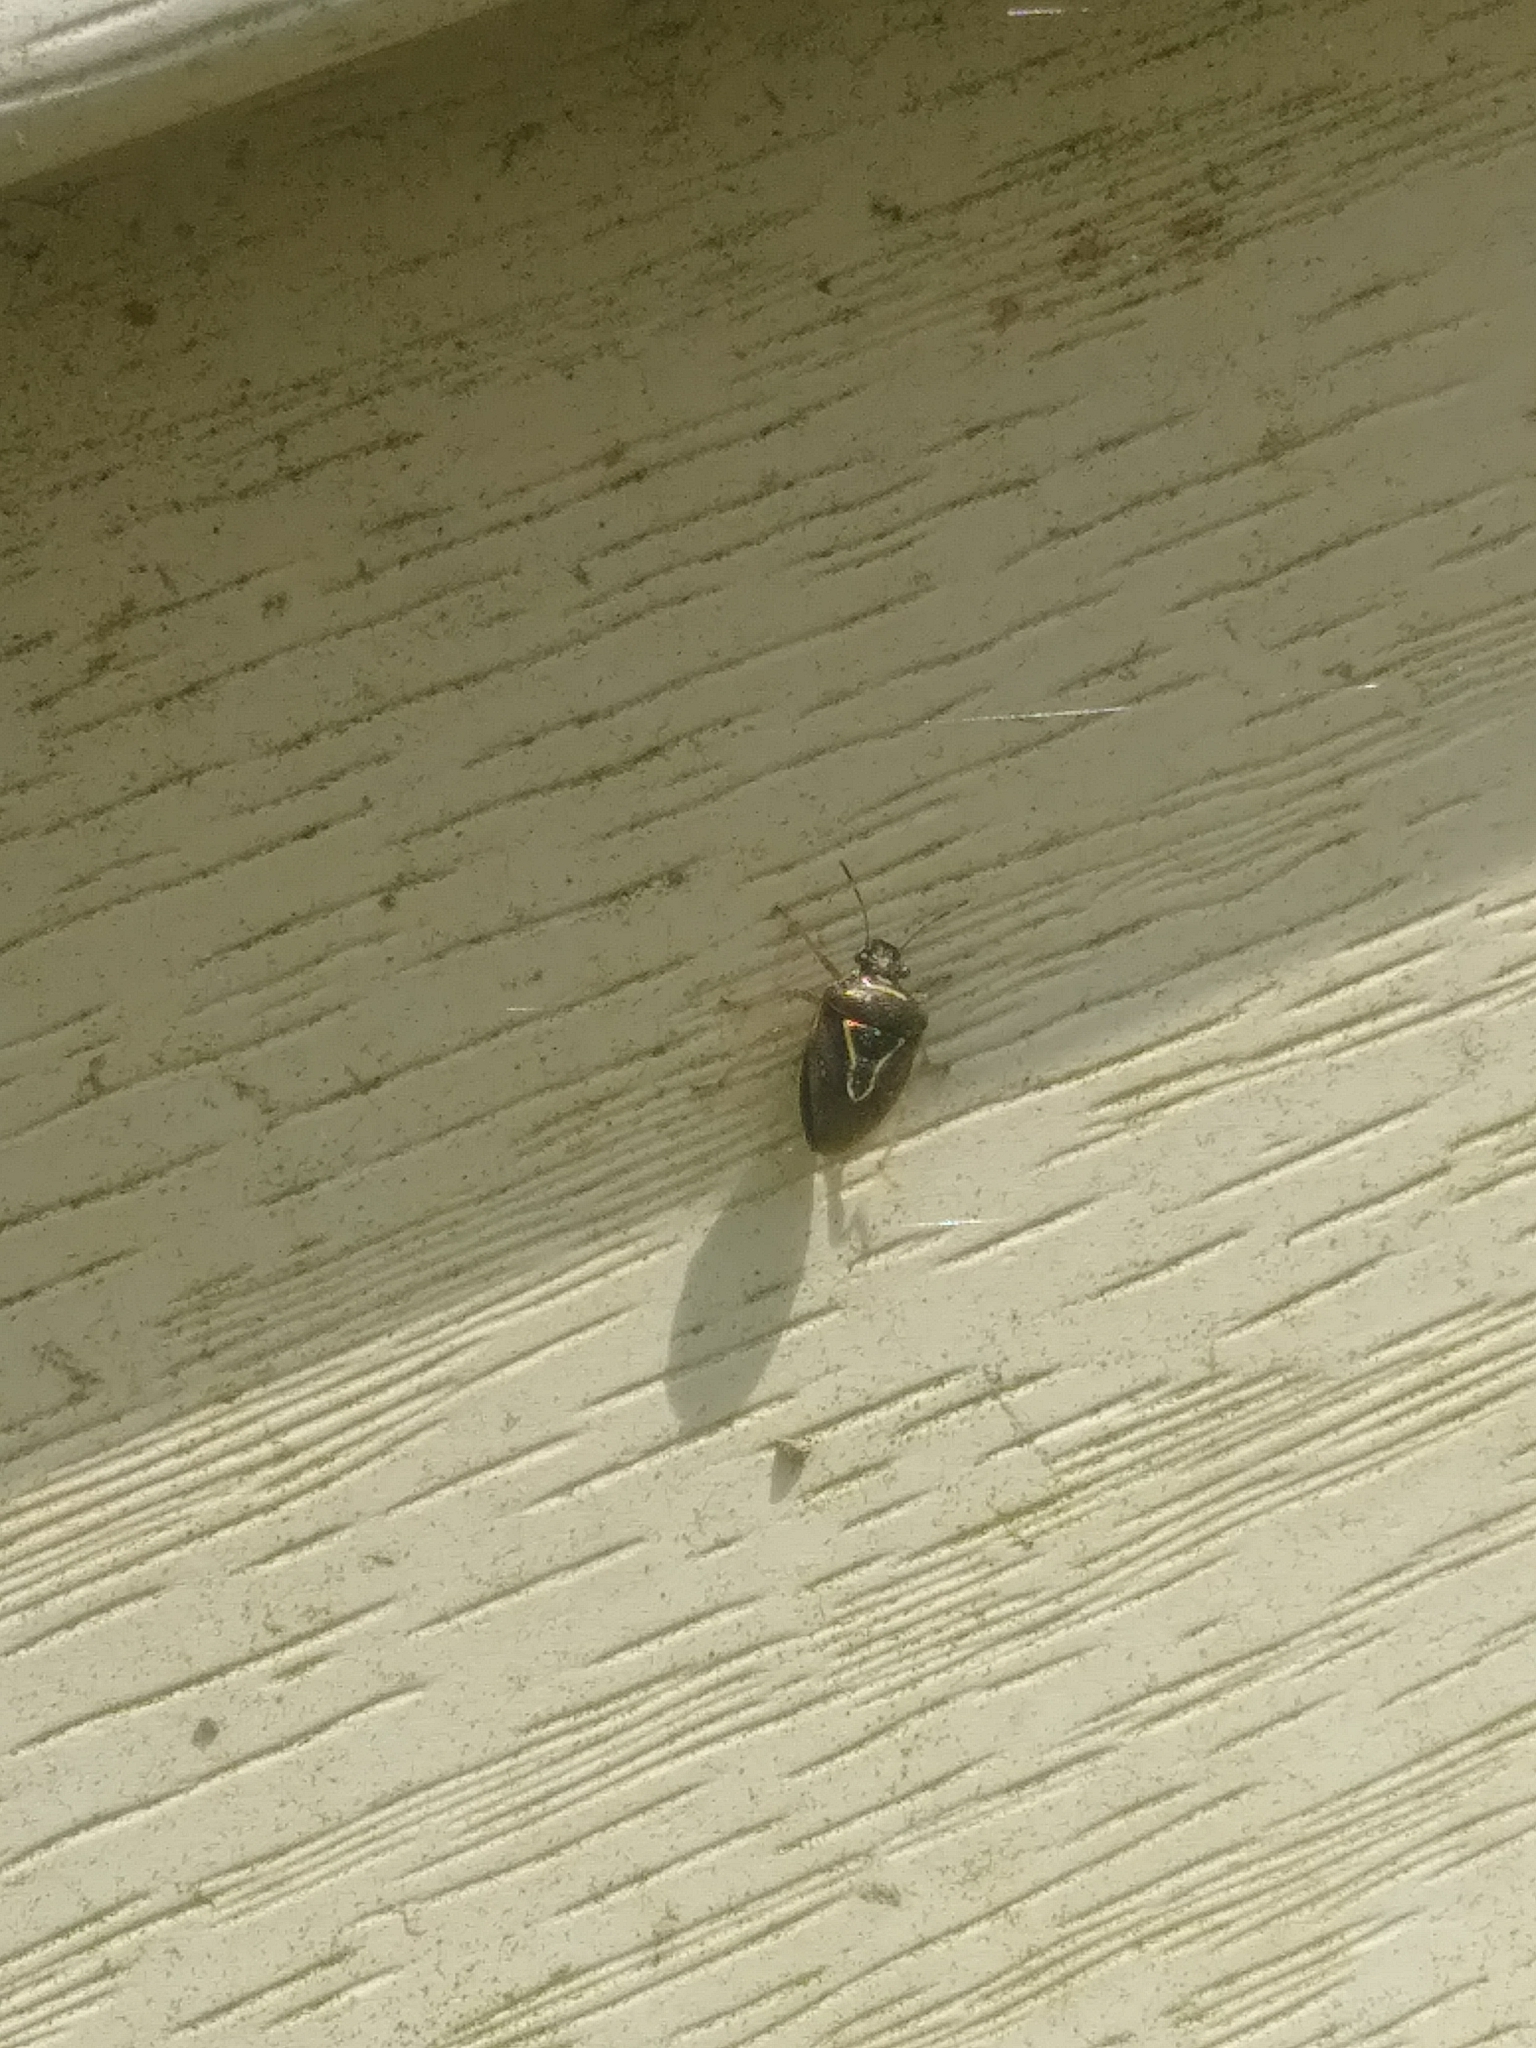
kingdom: Animalia
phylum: Arthropoda
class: Insecta
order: Hemiptera
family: Pentatomidae
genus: Mormidea
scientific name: Mormidea lugens
